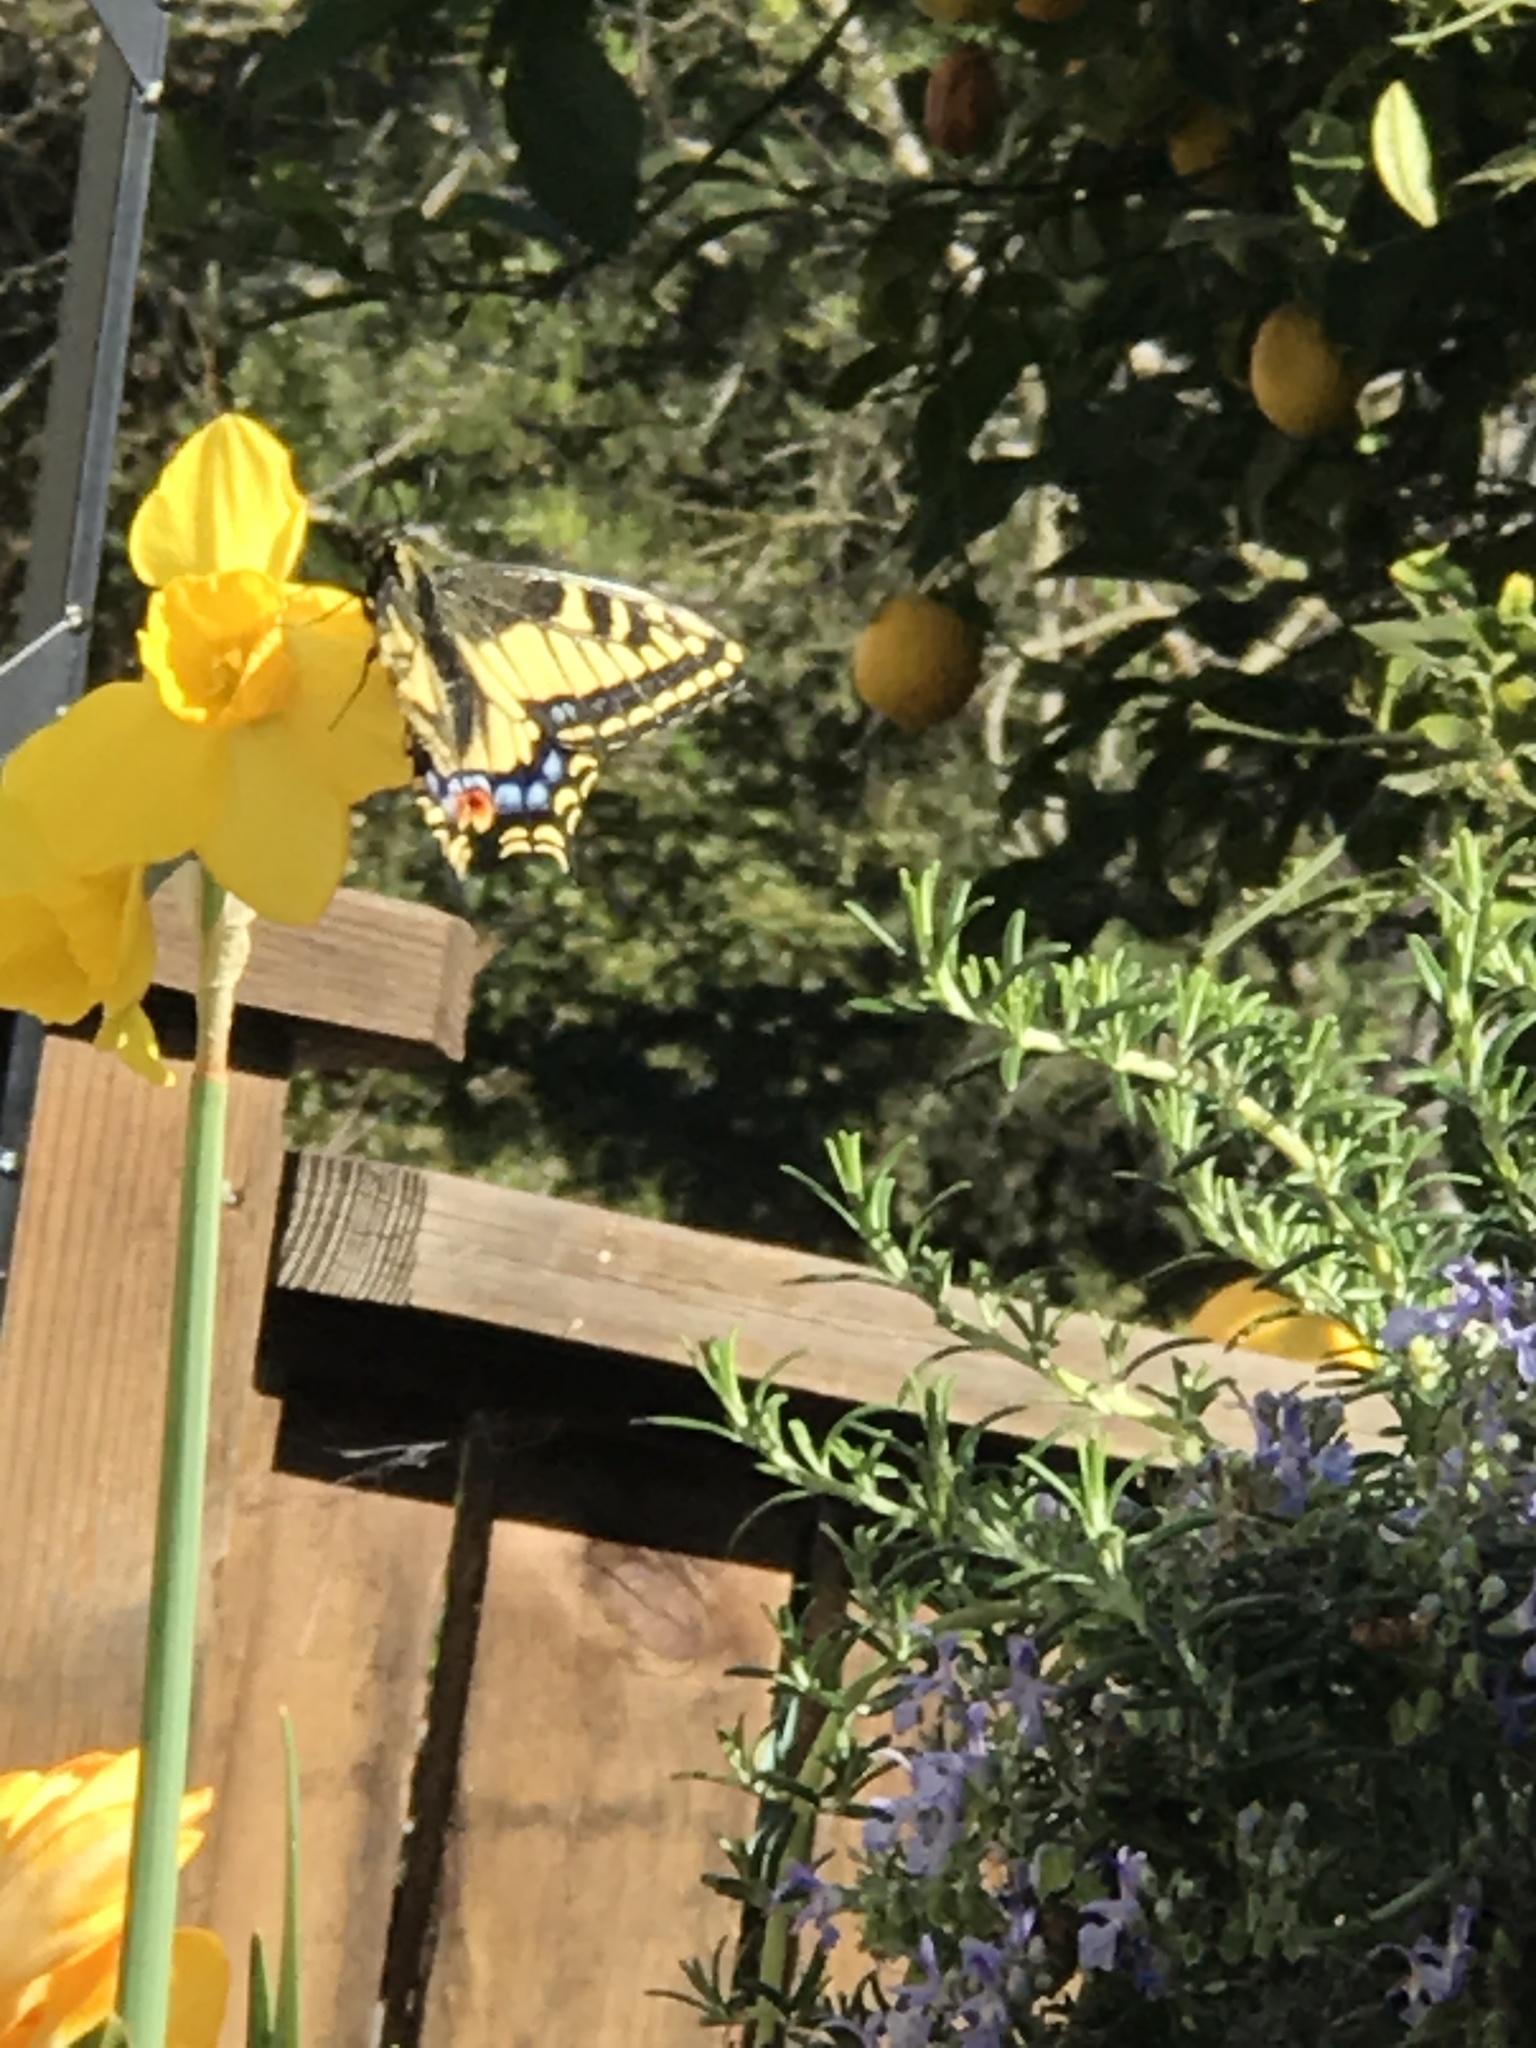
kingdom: Animalia
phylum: Arthropoda
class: Insecta
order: Lepidoptera
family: Papilionidae
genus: Papilio
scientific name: Papilio zelicaon
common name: Anise swallowtail
